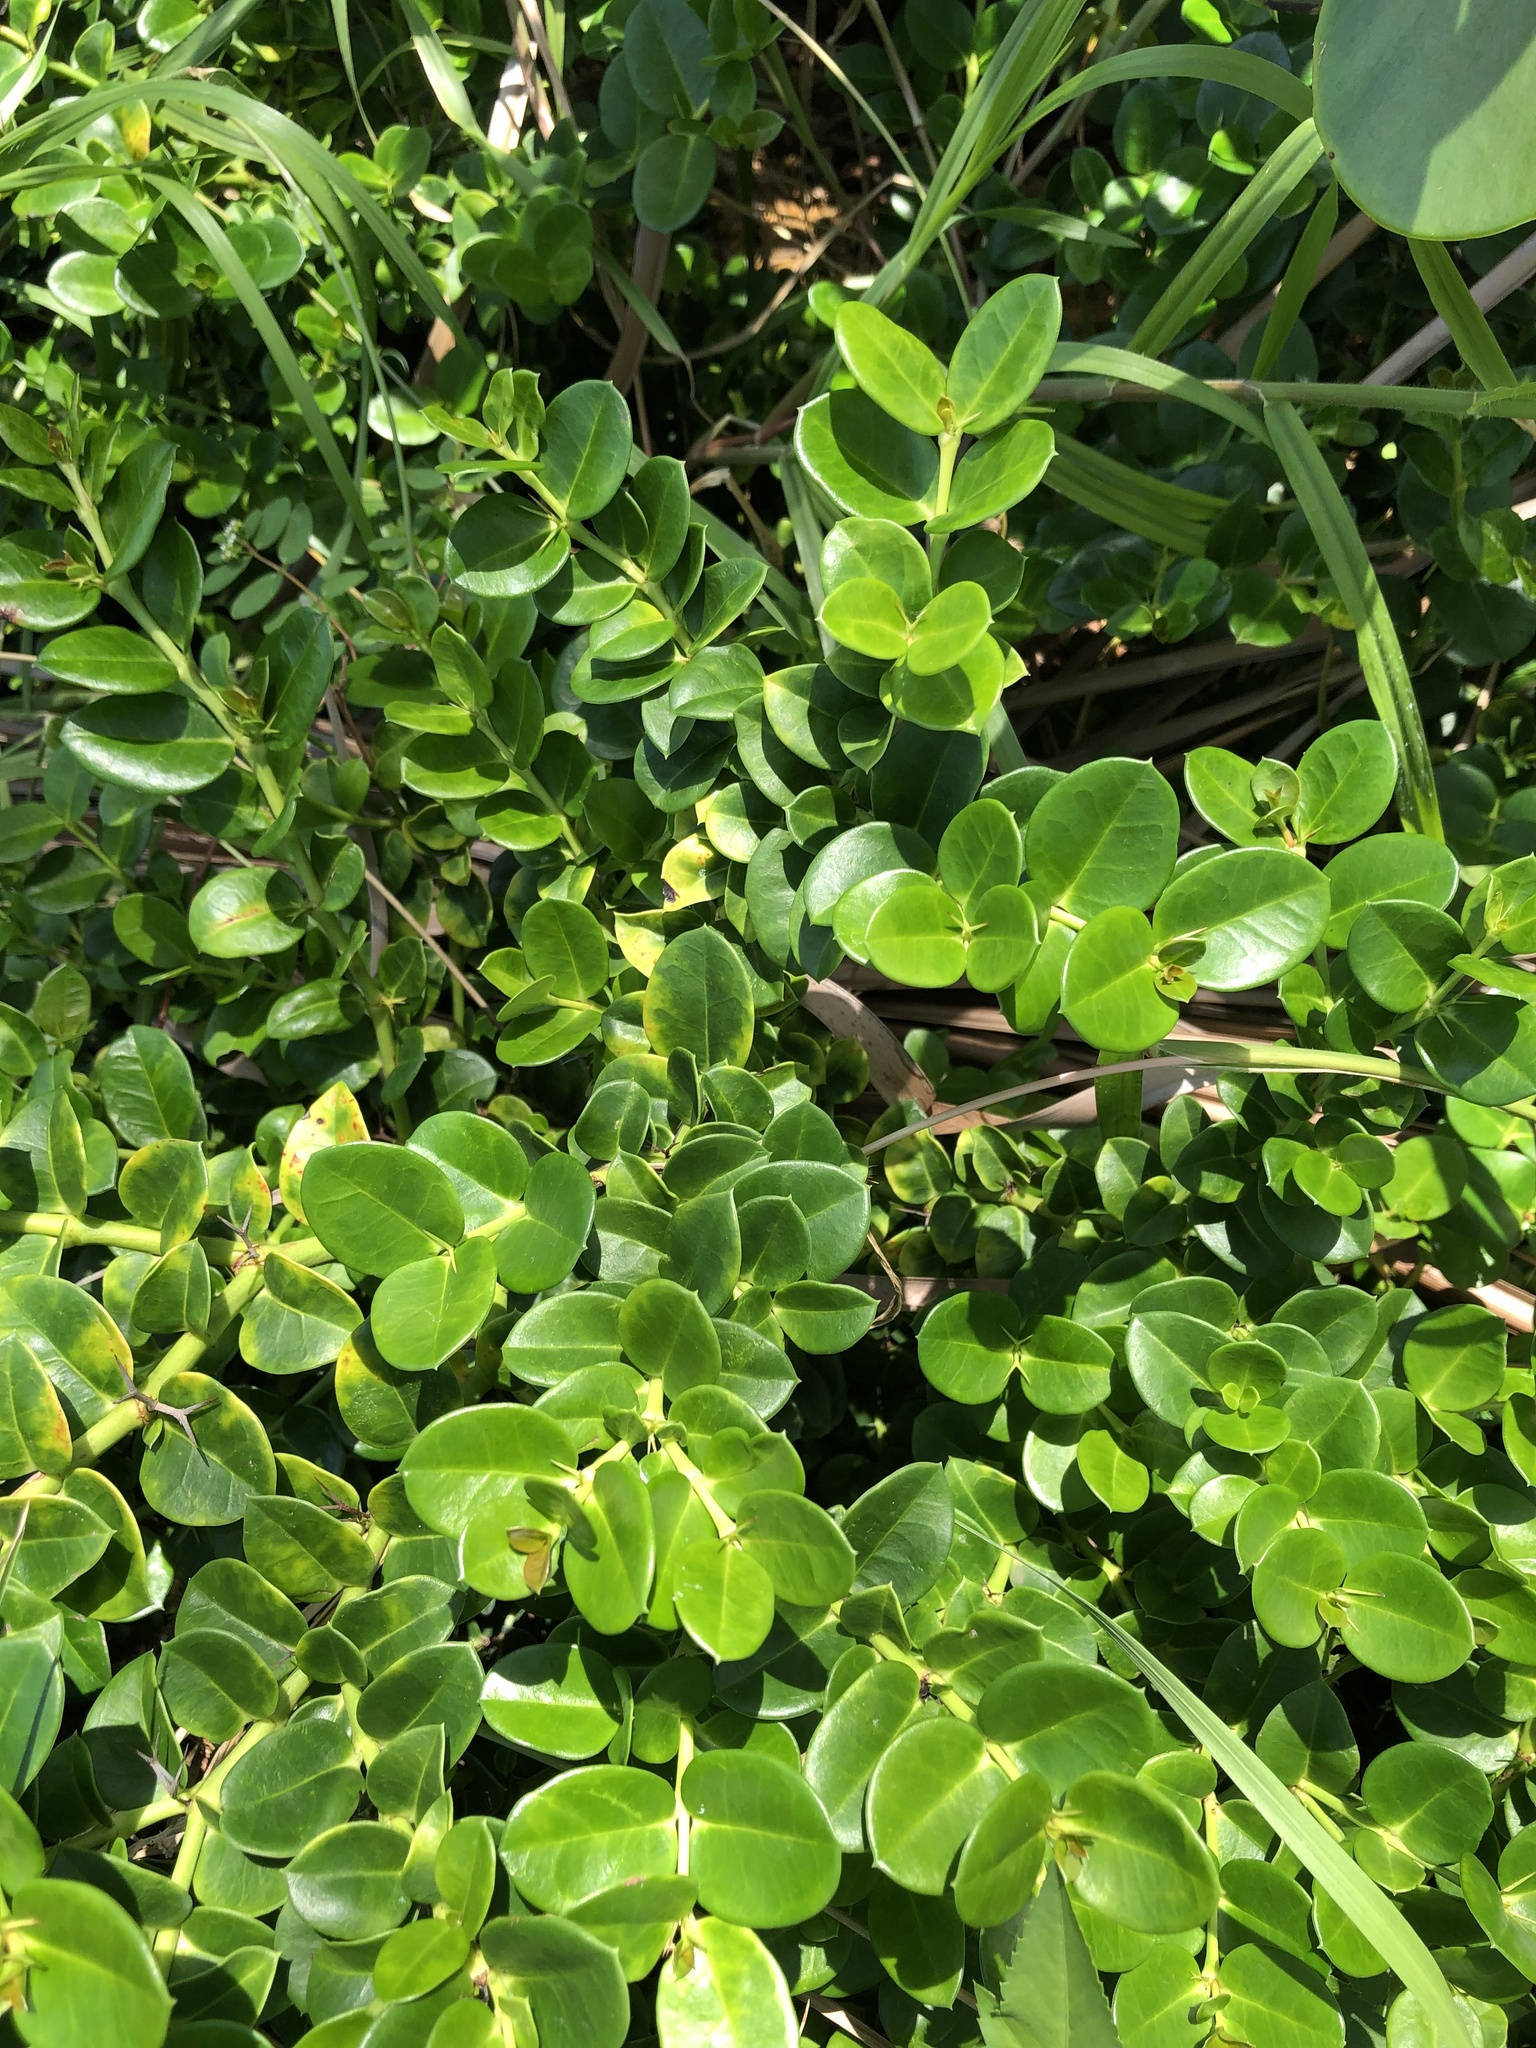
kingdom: Plantae
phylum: Tracheophyta
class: Magnoliopsida
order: Gentianales
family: Apocynaceae
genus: Carissa
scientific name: Carissa macrocarpa
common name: Natal plum
